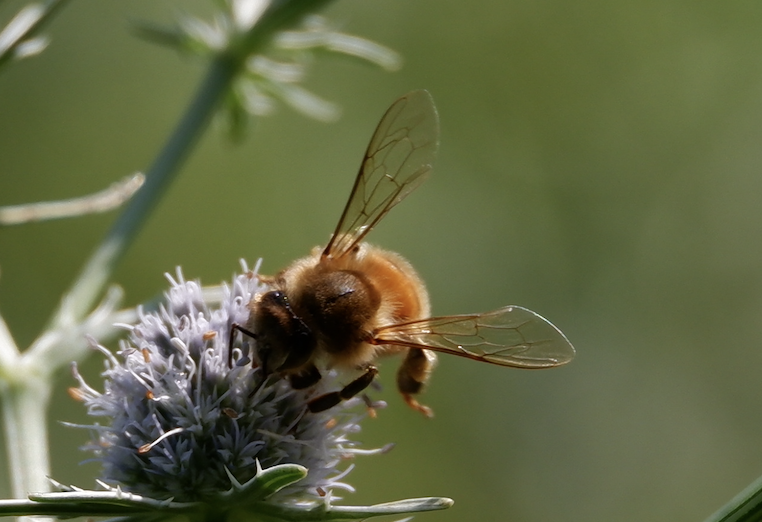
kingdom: Animalia
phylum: Arthropoda
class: Insecta
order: Hymenoptera
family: Apidae
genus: Apis
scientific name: Apis mellifera
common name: Honey bee
